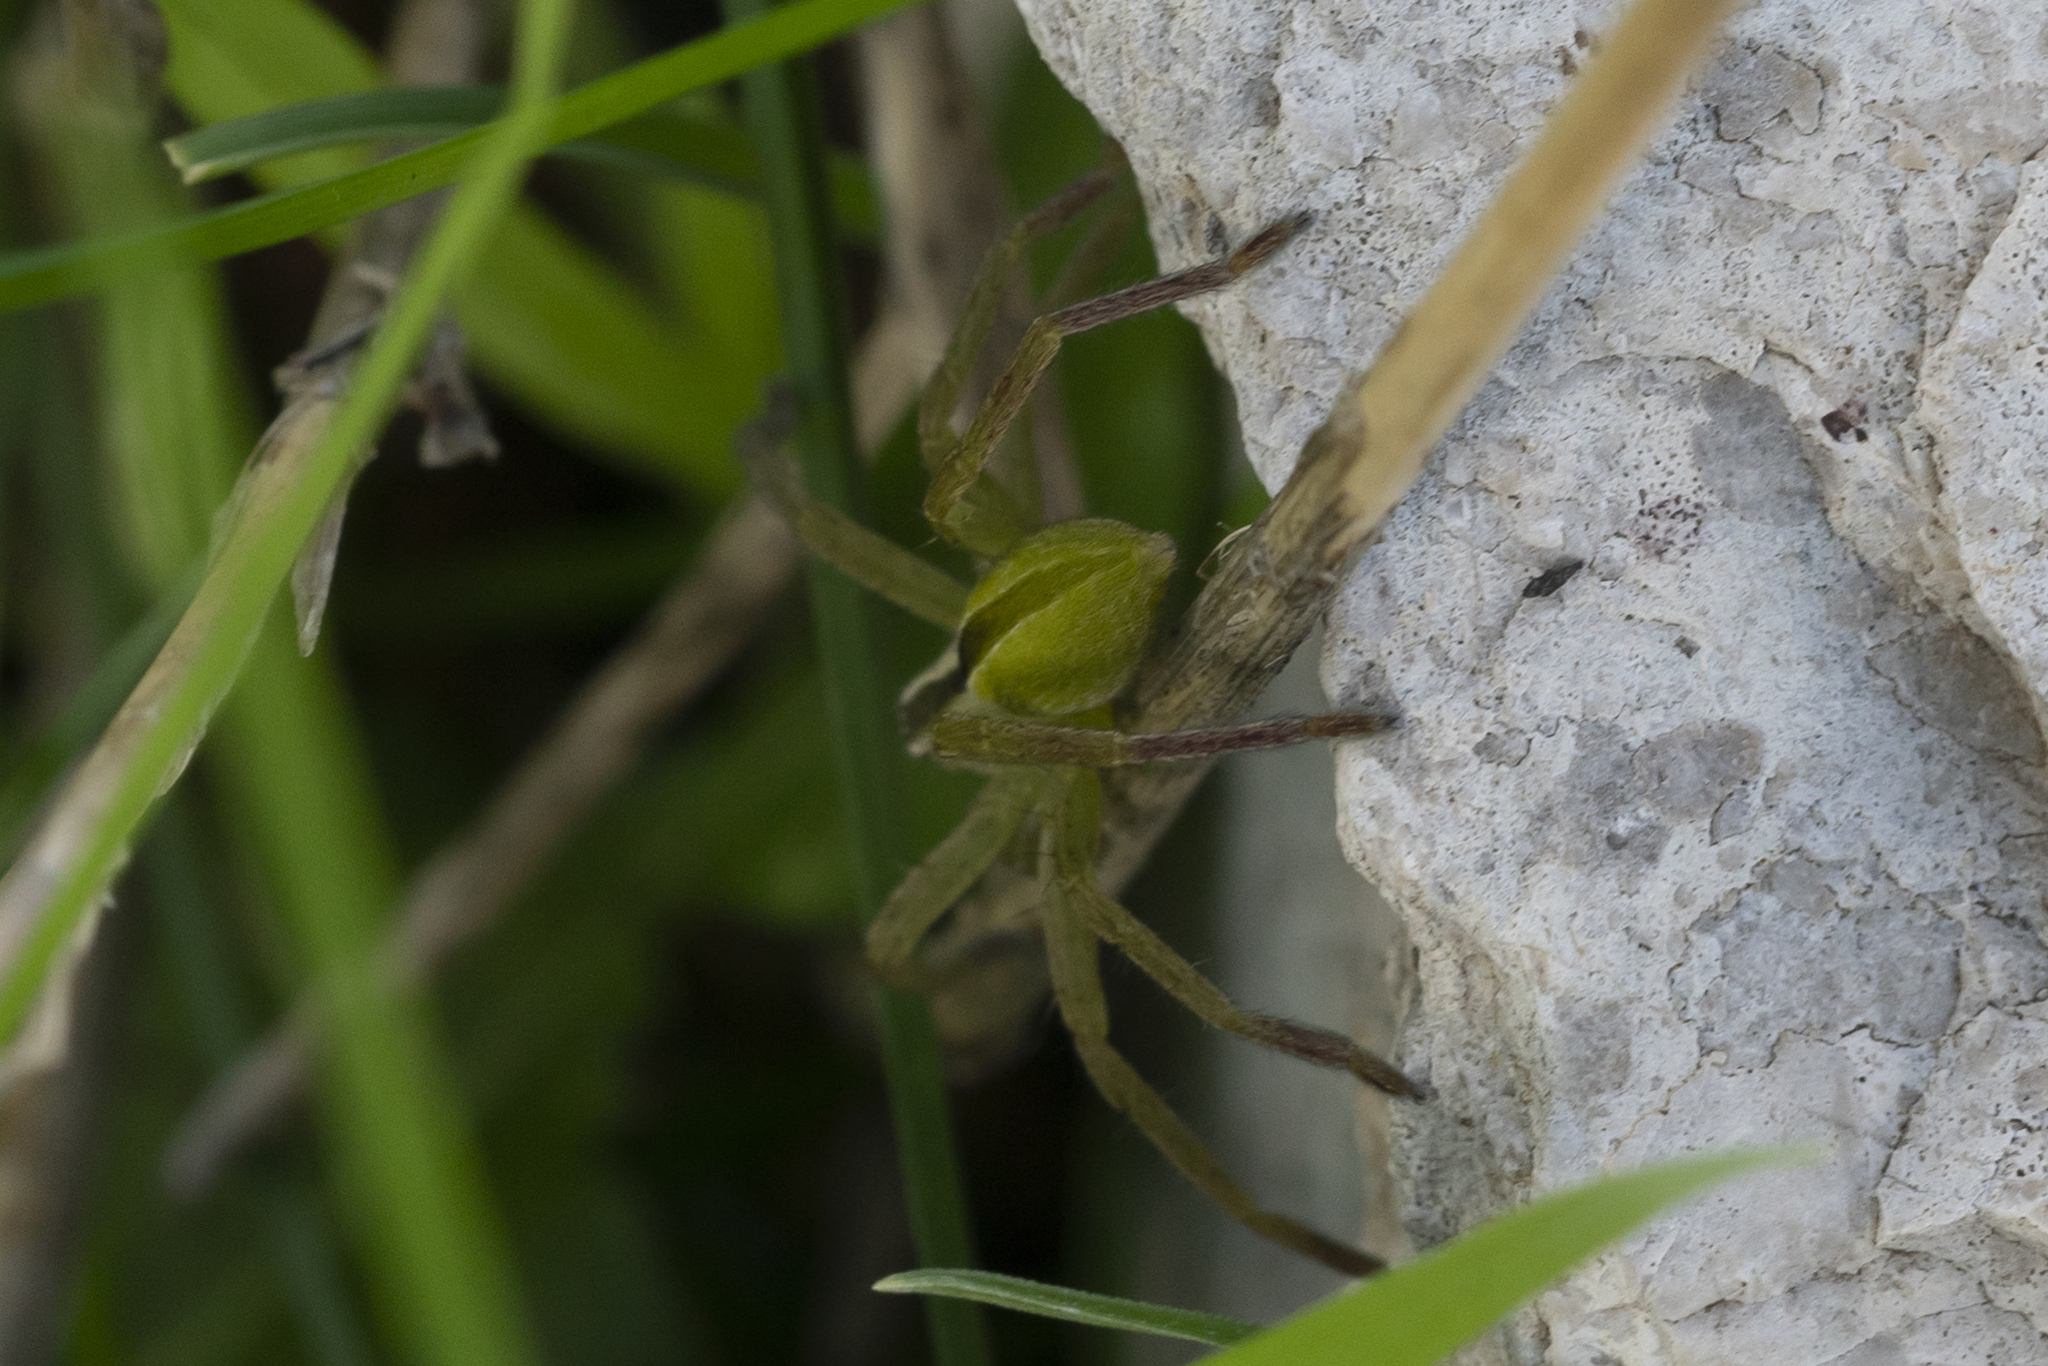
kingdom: Animalia
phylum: Arthropoda
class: Arachnida
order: Araneae
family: Sparassidae
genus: Micrommata
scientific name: Micrommata ligurina
